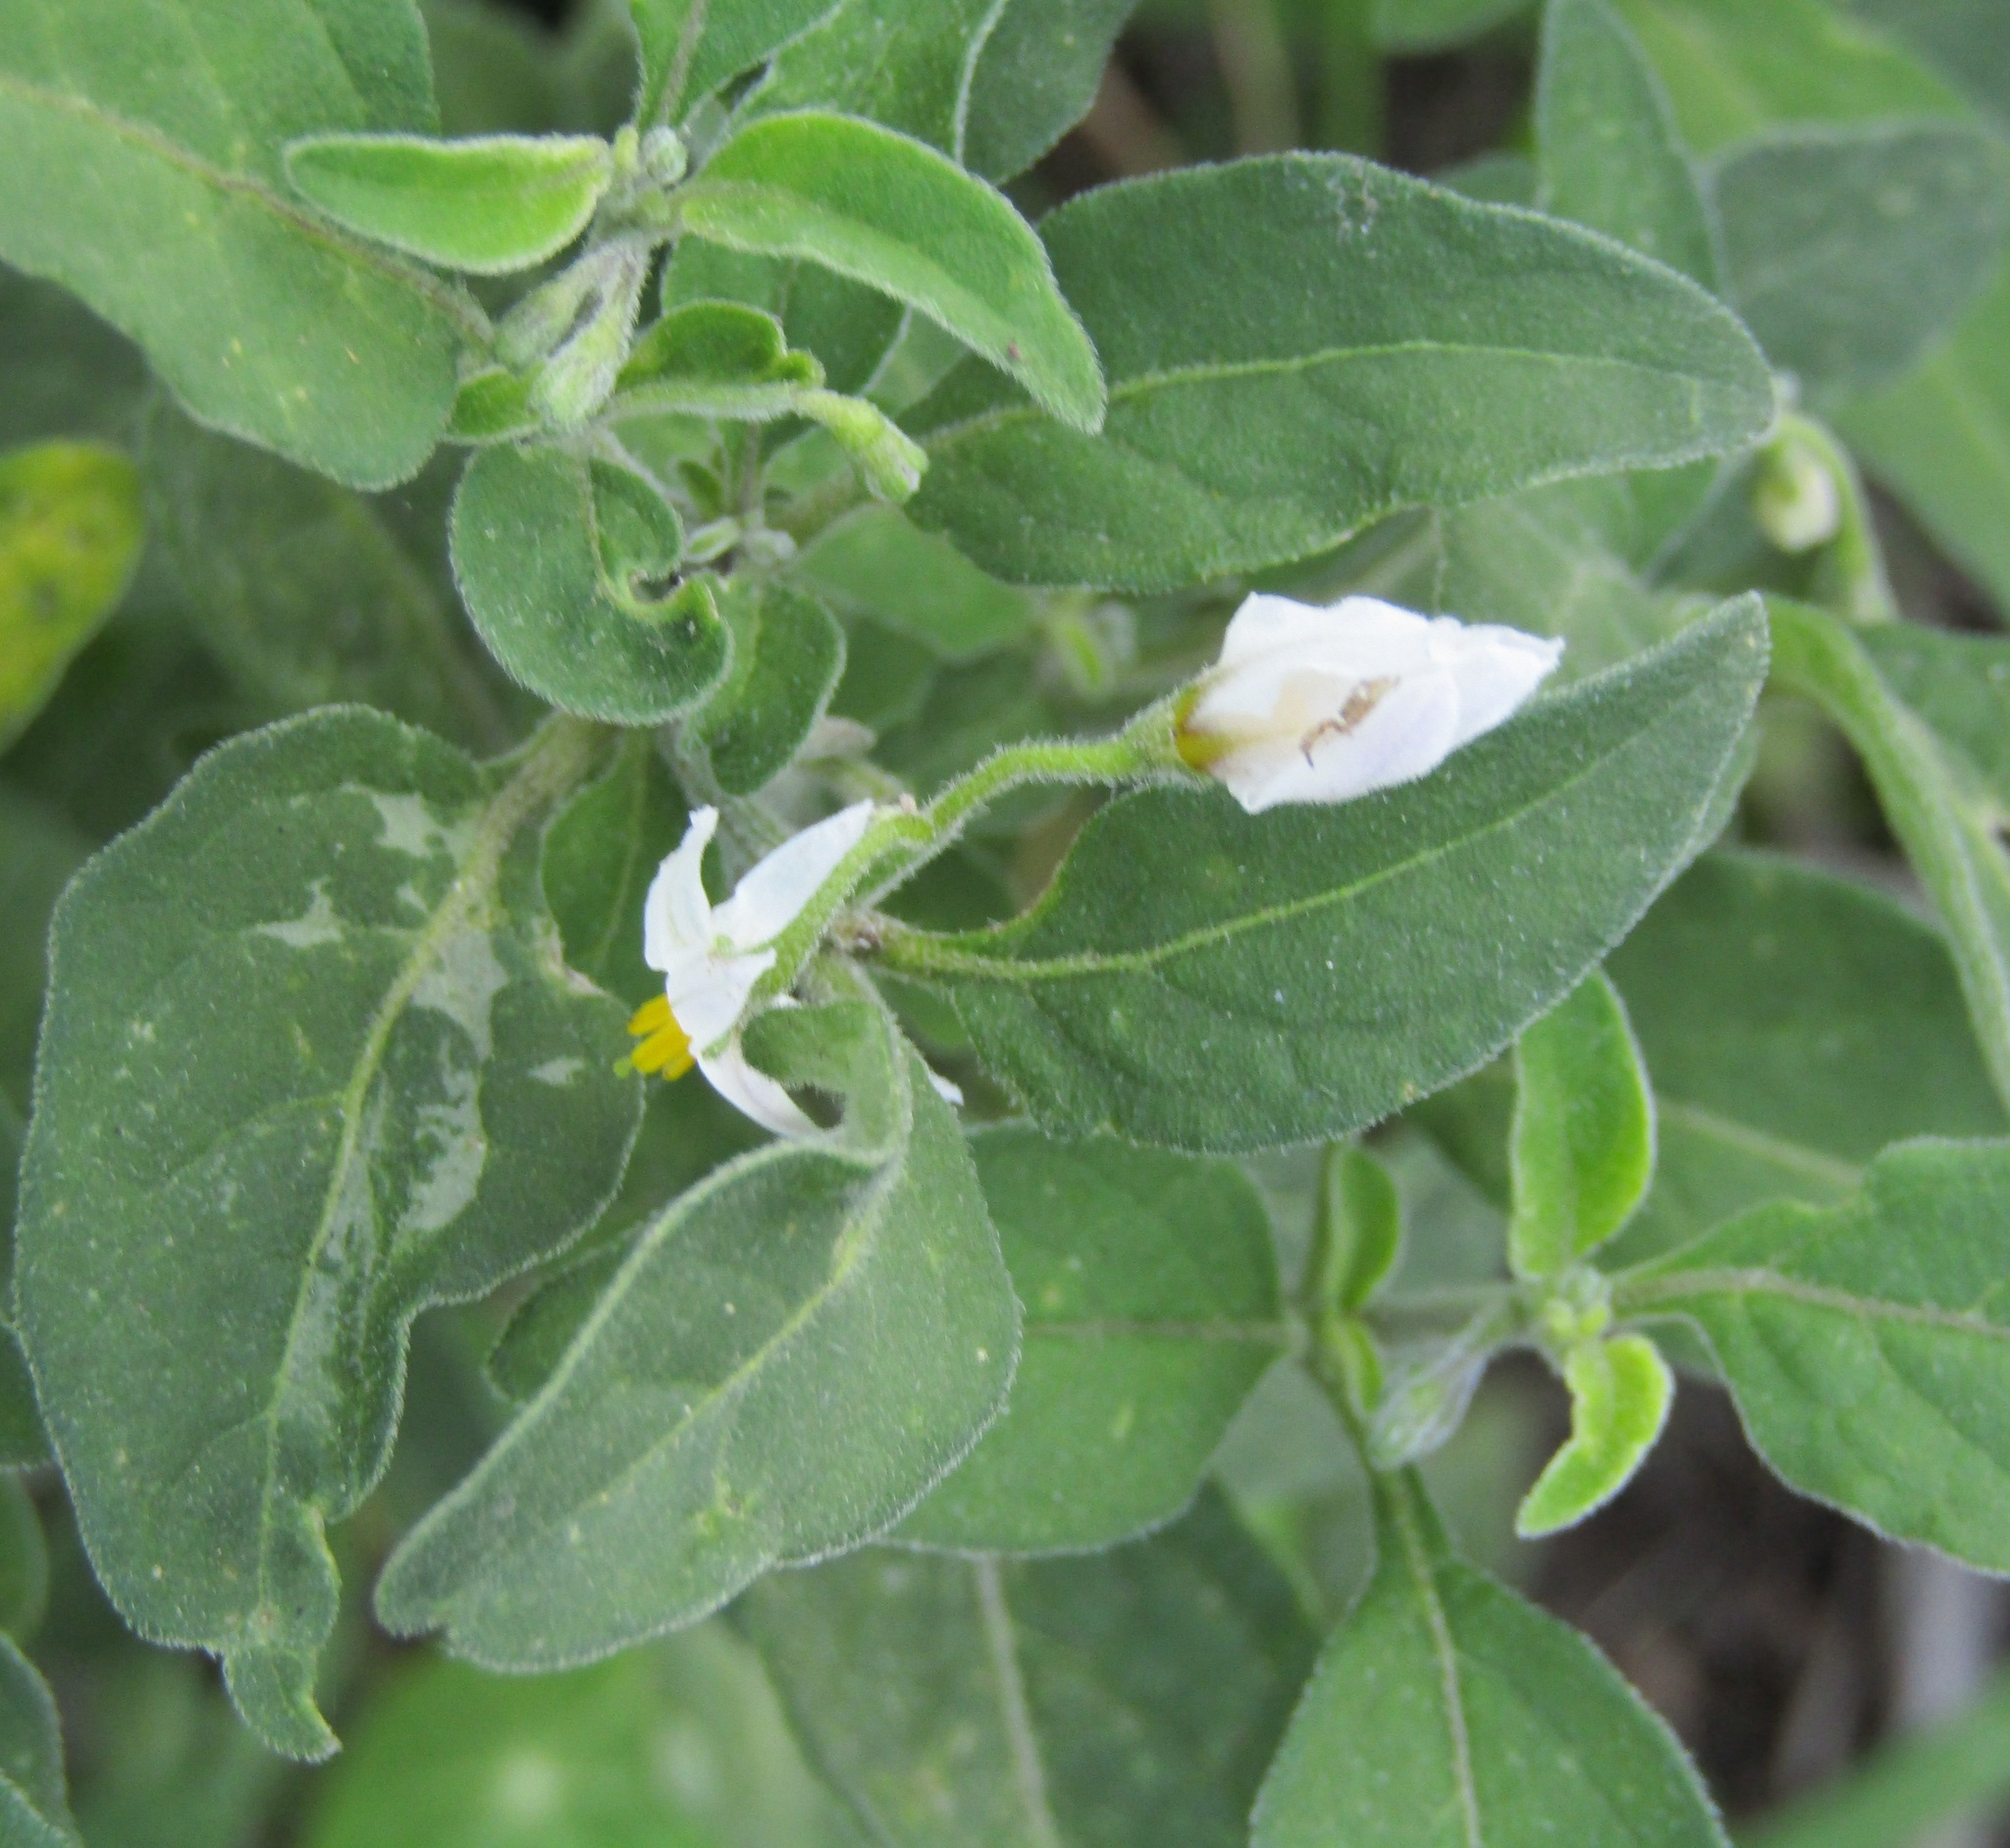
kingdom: Plantae
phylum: Tracheophyta
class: Magnoliopsida
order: Solanales
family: Solanaceae
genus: Solanum
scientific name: Solanum chenopodioides
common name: Tall nightshade
